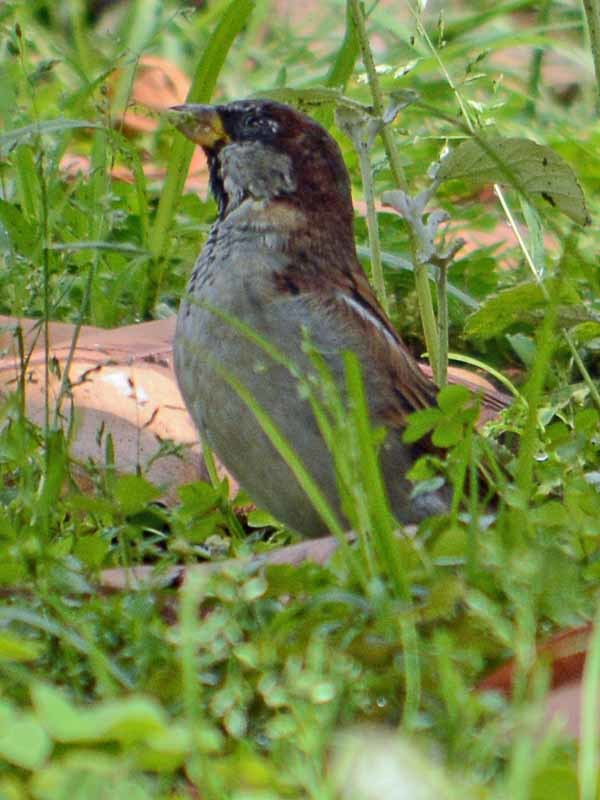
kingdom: Animalia
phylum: Chordata
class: Aves
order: Passeriformes
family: Passeridae
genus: Passer
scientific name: Passer domesticus
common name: House sparrow
